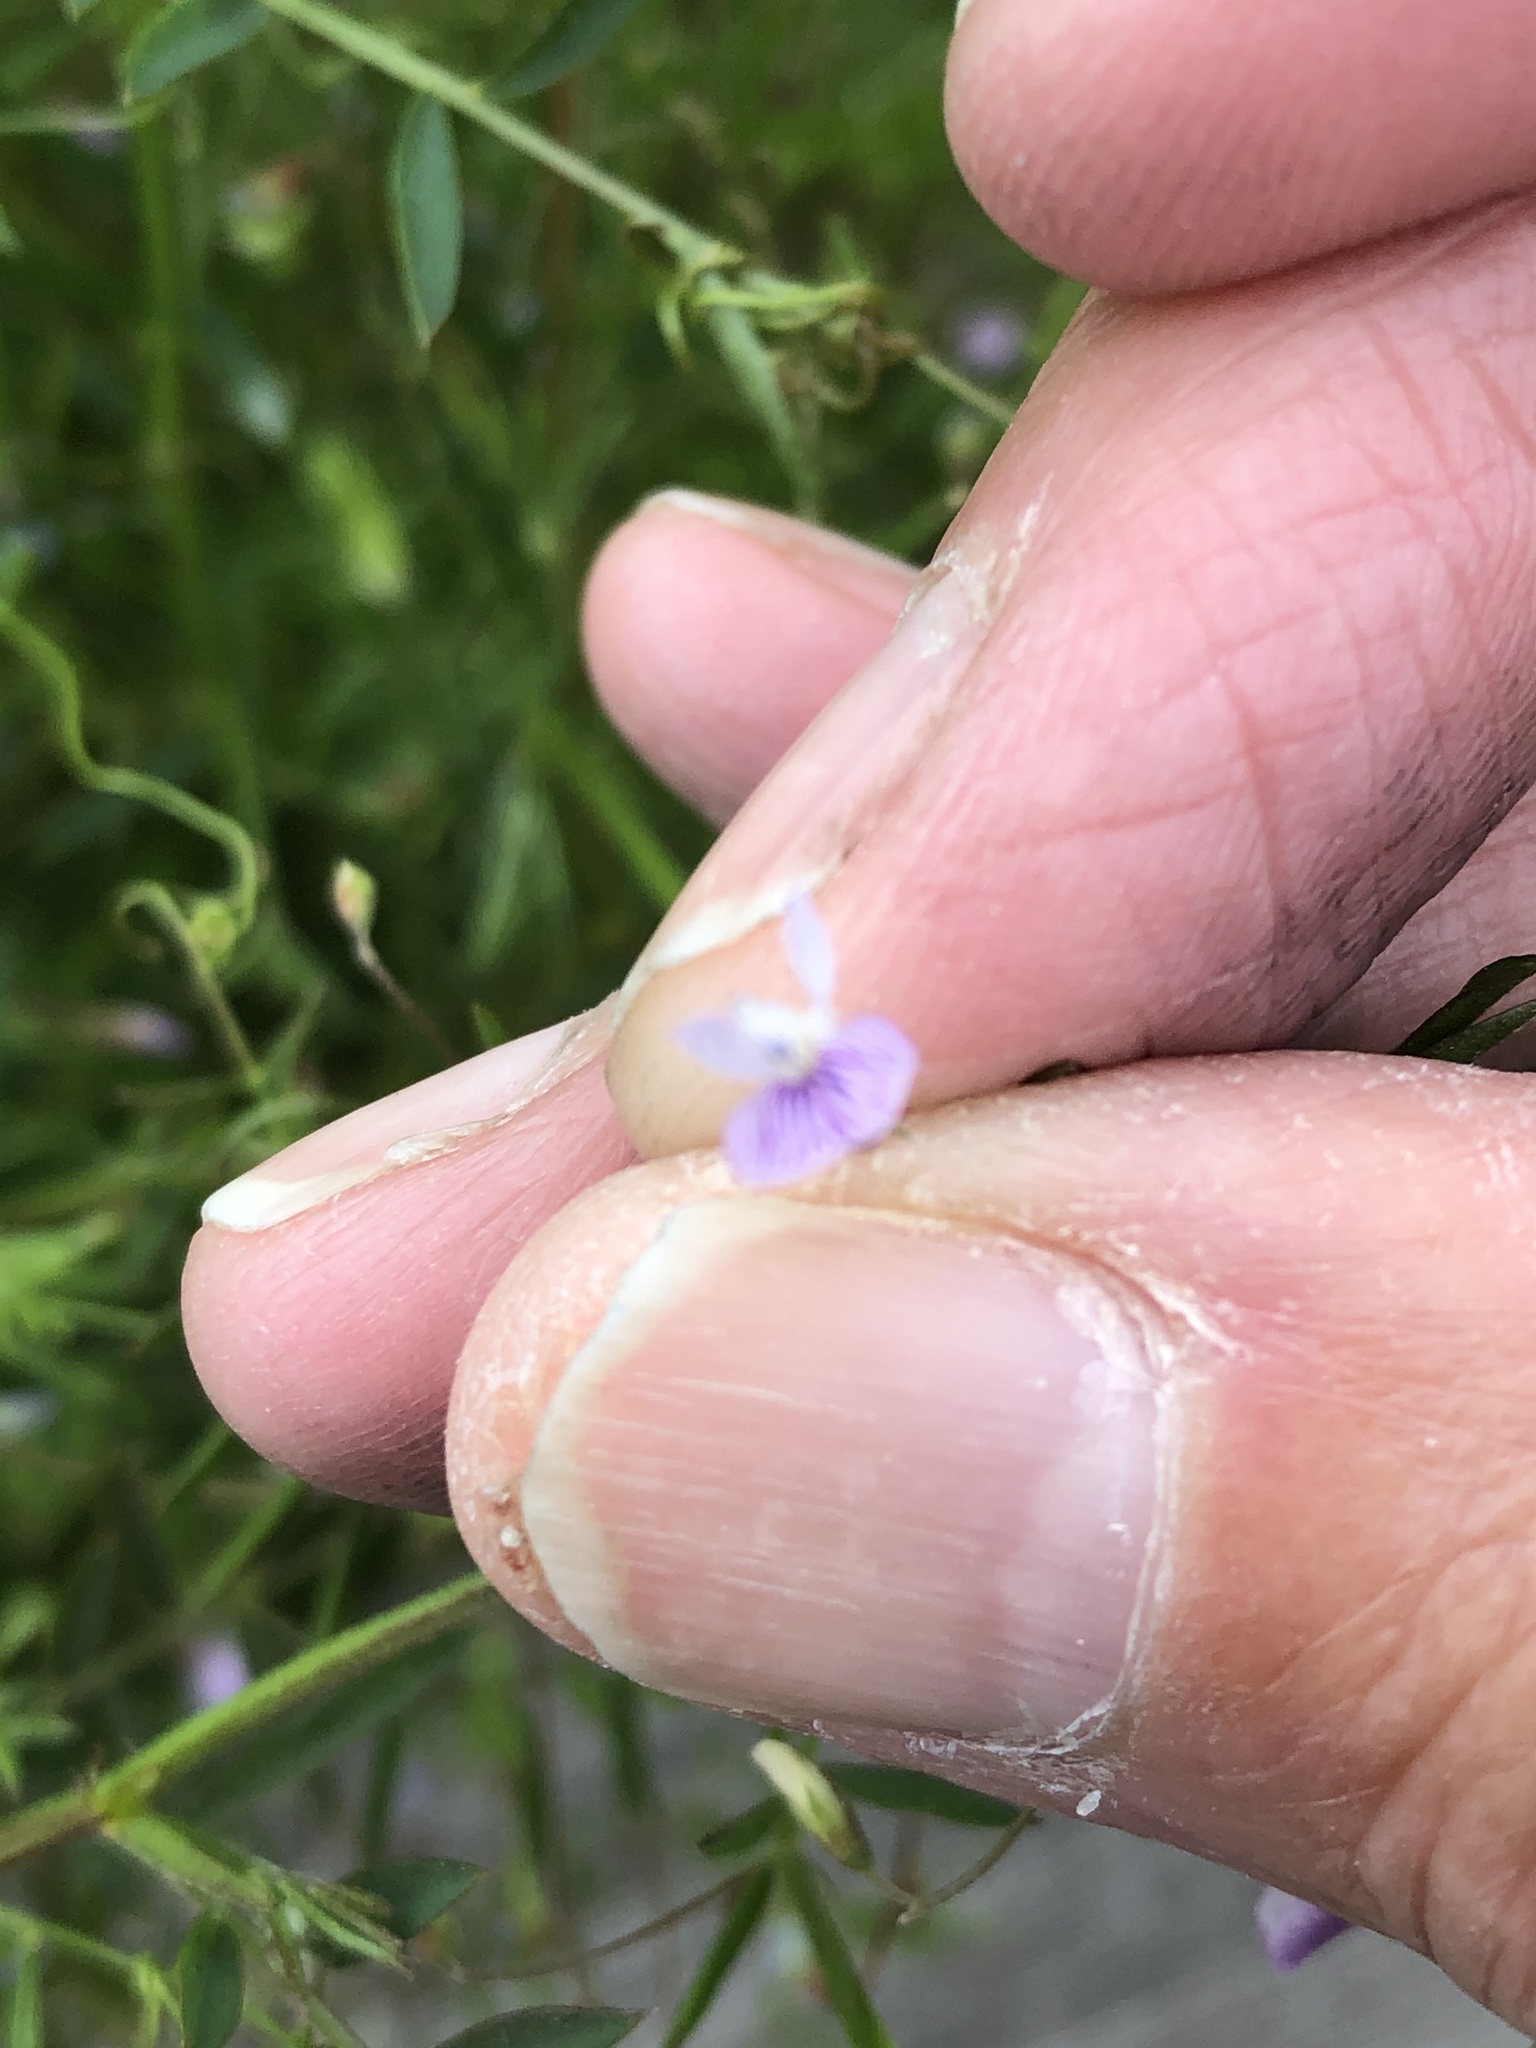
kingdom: Plantae
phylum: Tracheophyta
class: Magnoliopsida
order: Fabales
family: Fabaceae
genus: Vicia
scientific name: Vicia tetrasperma
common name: Smooth tare
